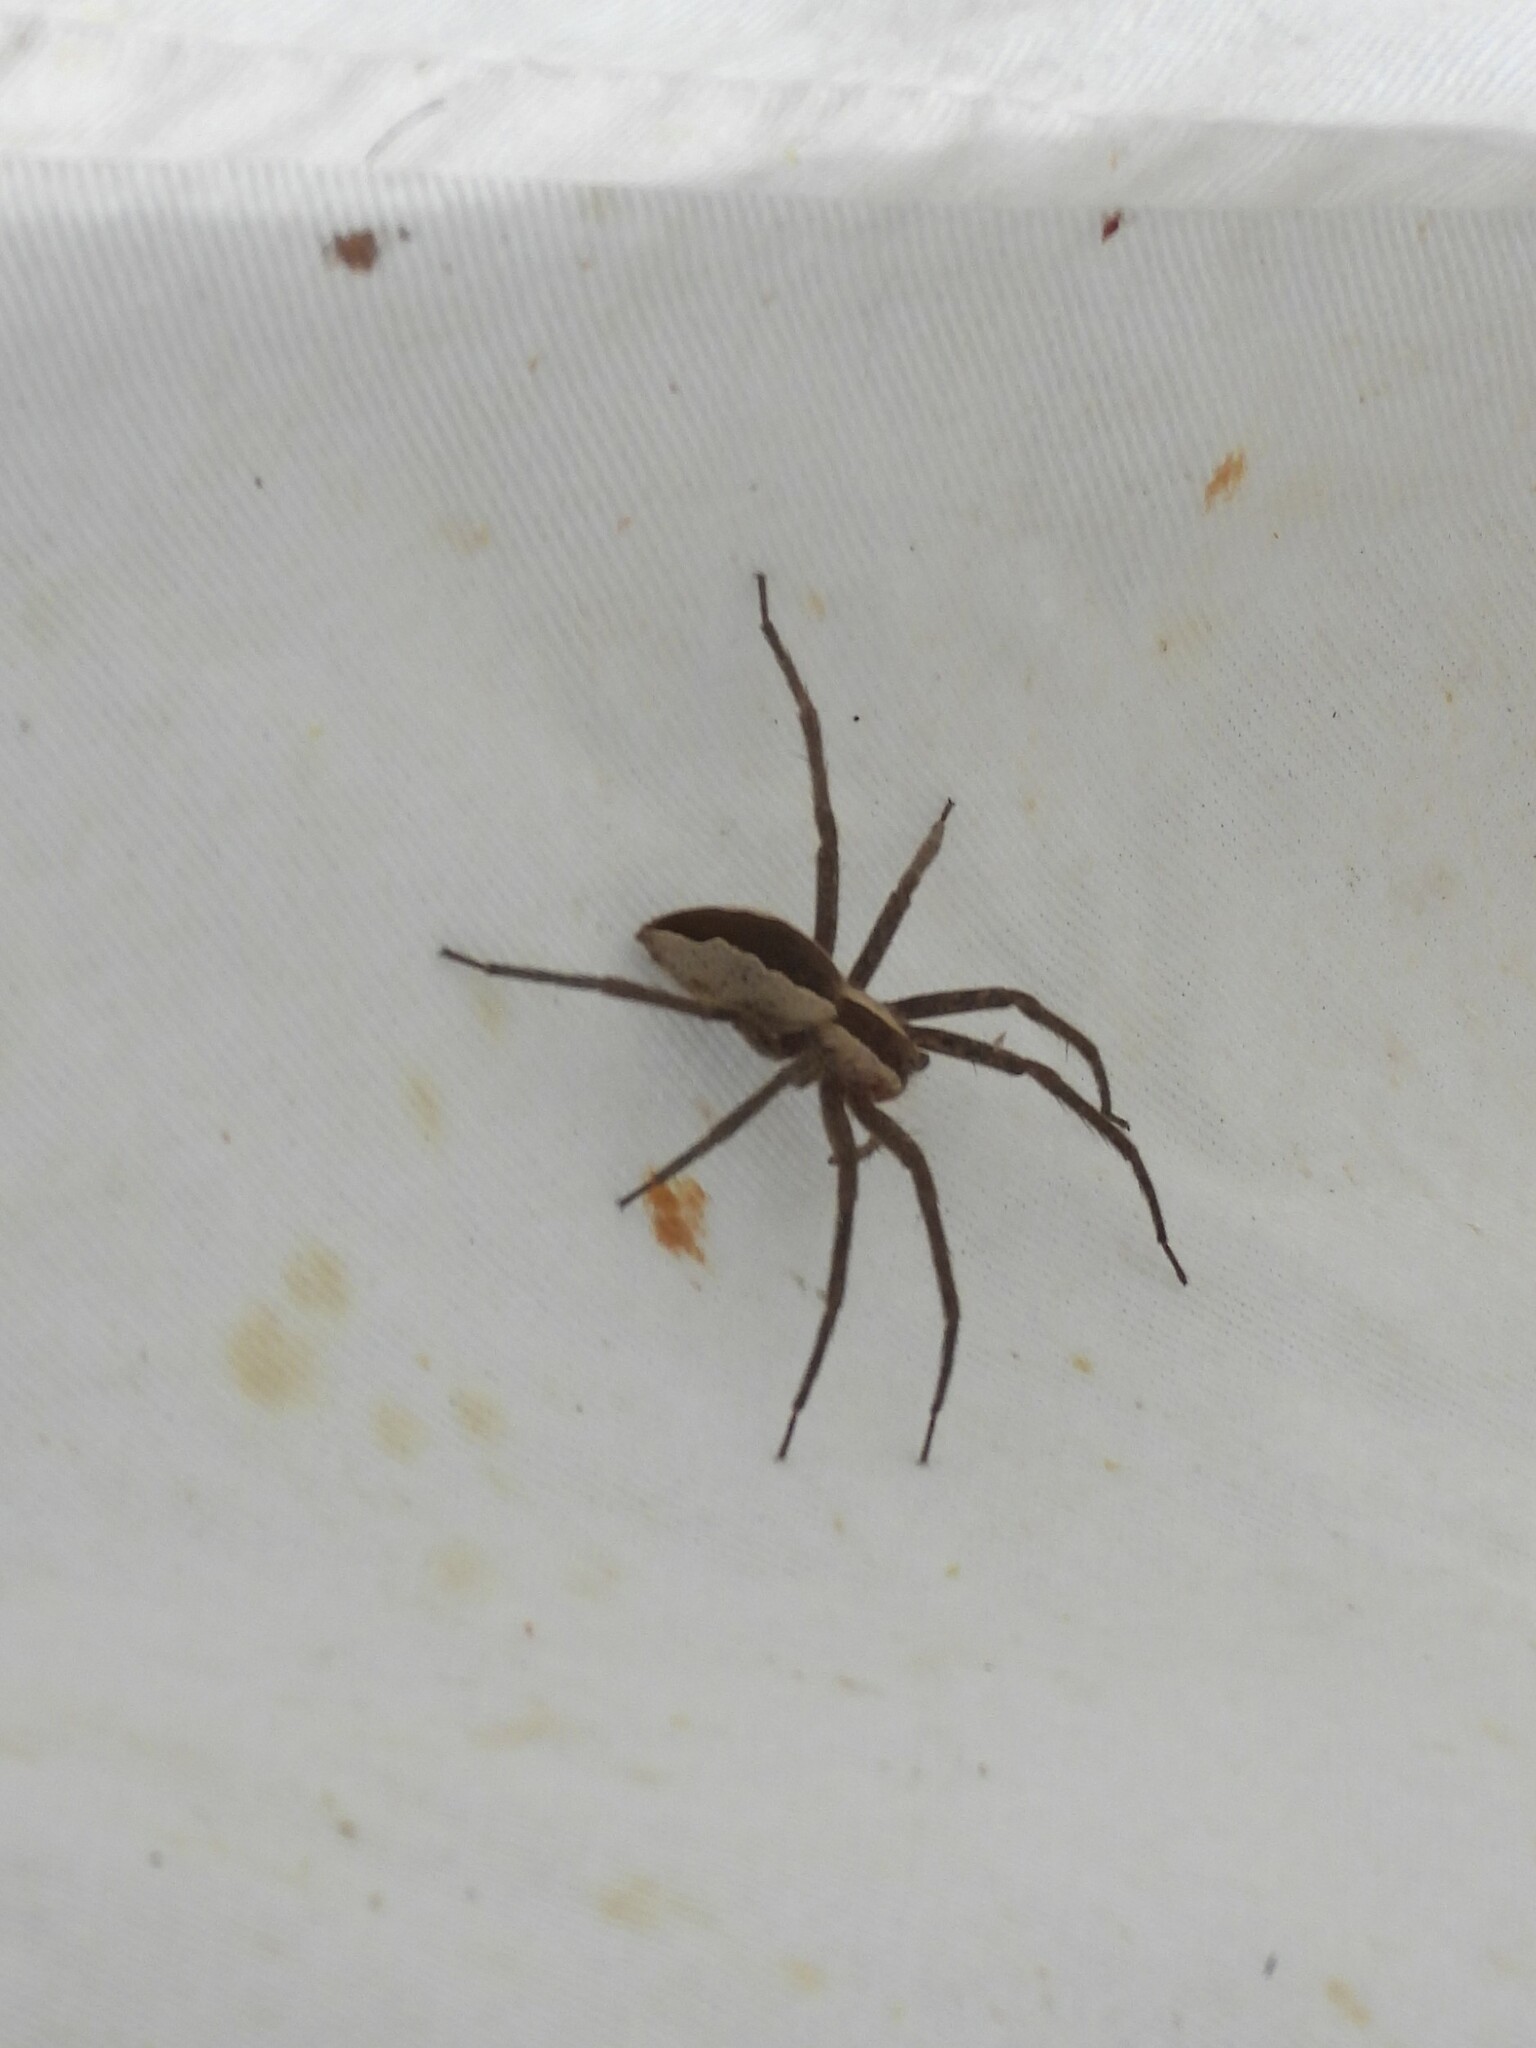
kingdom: Animalia
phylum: Arthropoda
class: Arachnida
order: Araneae
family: Pisauridae
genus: Pisaurina
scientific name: Pisaurina mira
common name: American nursery web spider
